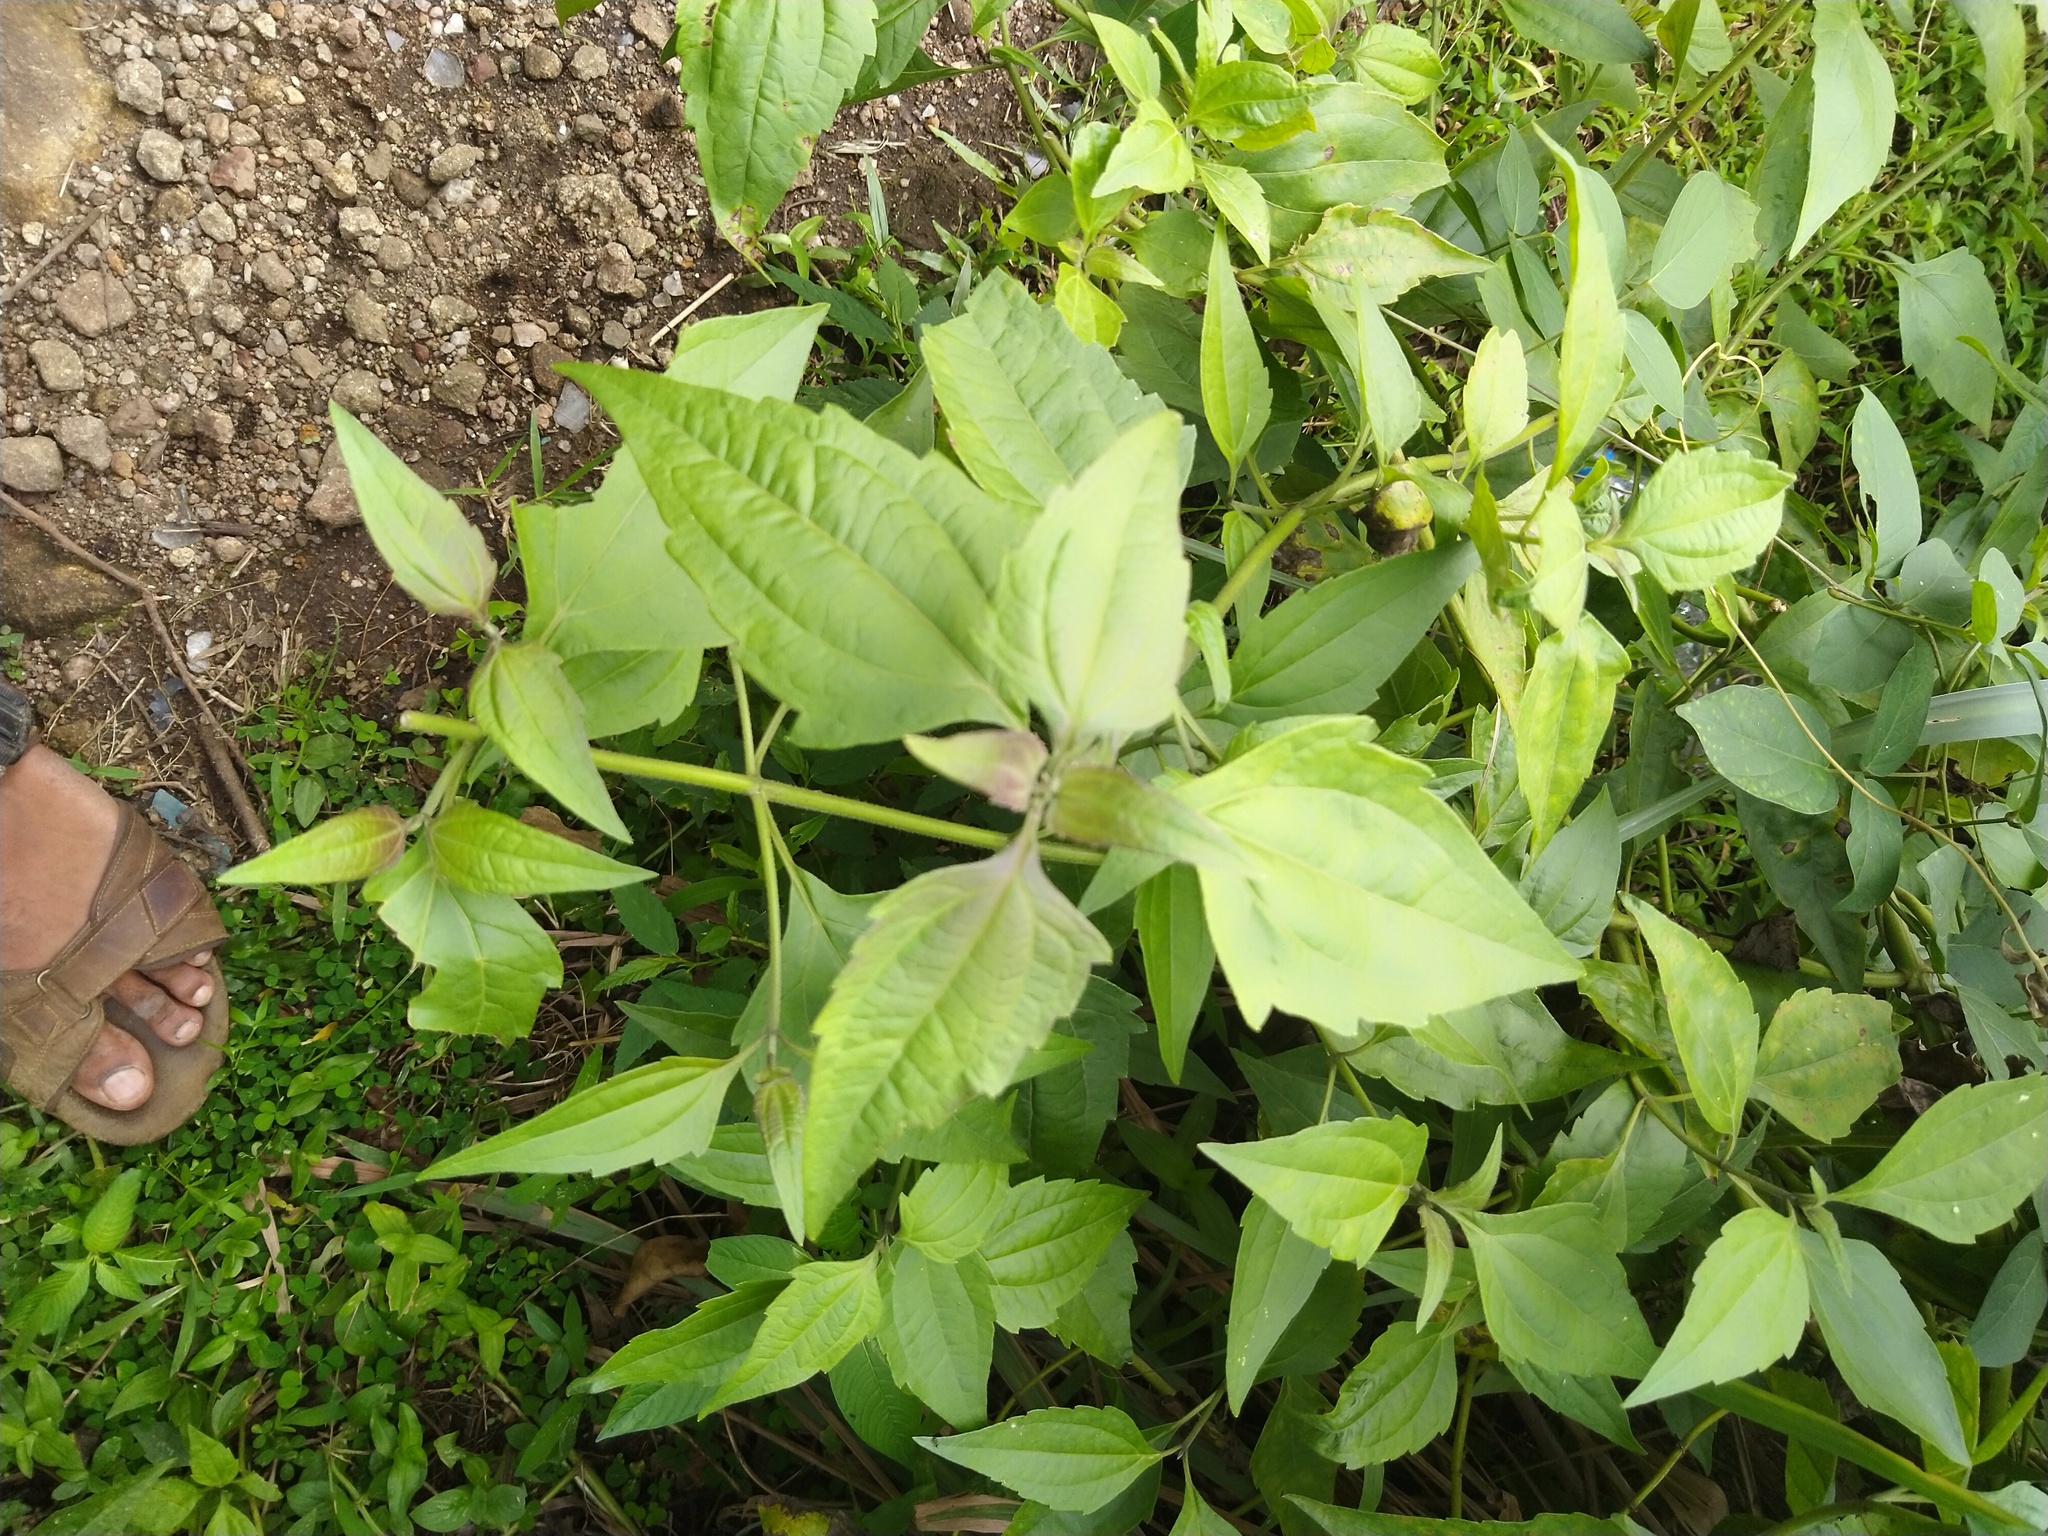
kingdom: Plantae
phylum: Tracheophyta
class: Magnoliopsida
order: Asterales
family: Asteraceae
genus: Chromolaena
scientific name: Chromolaena odorata
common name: Siamweed
